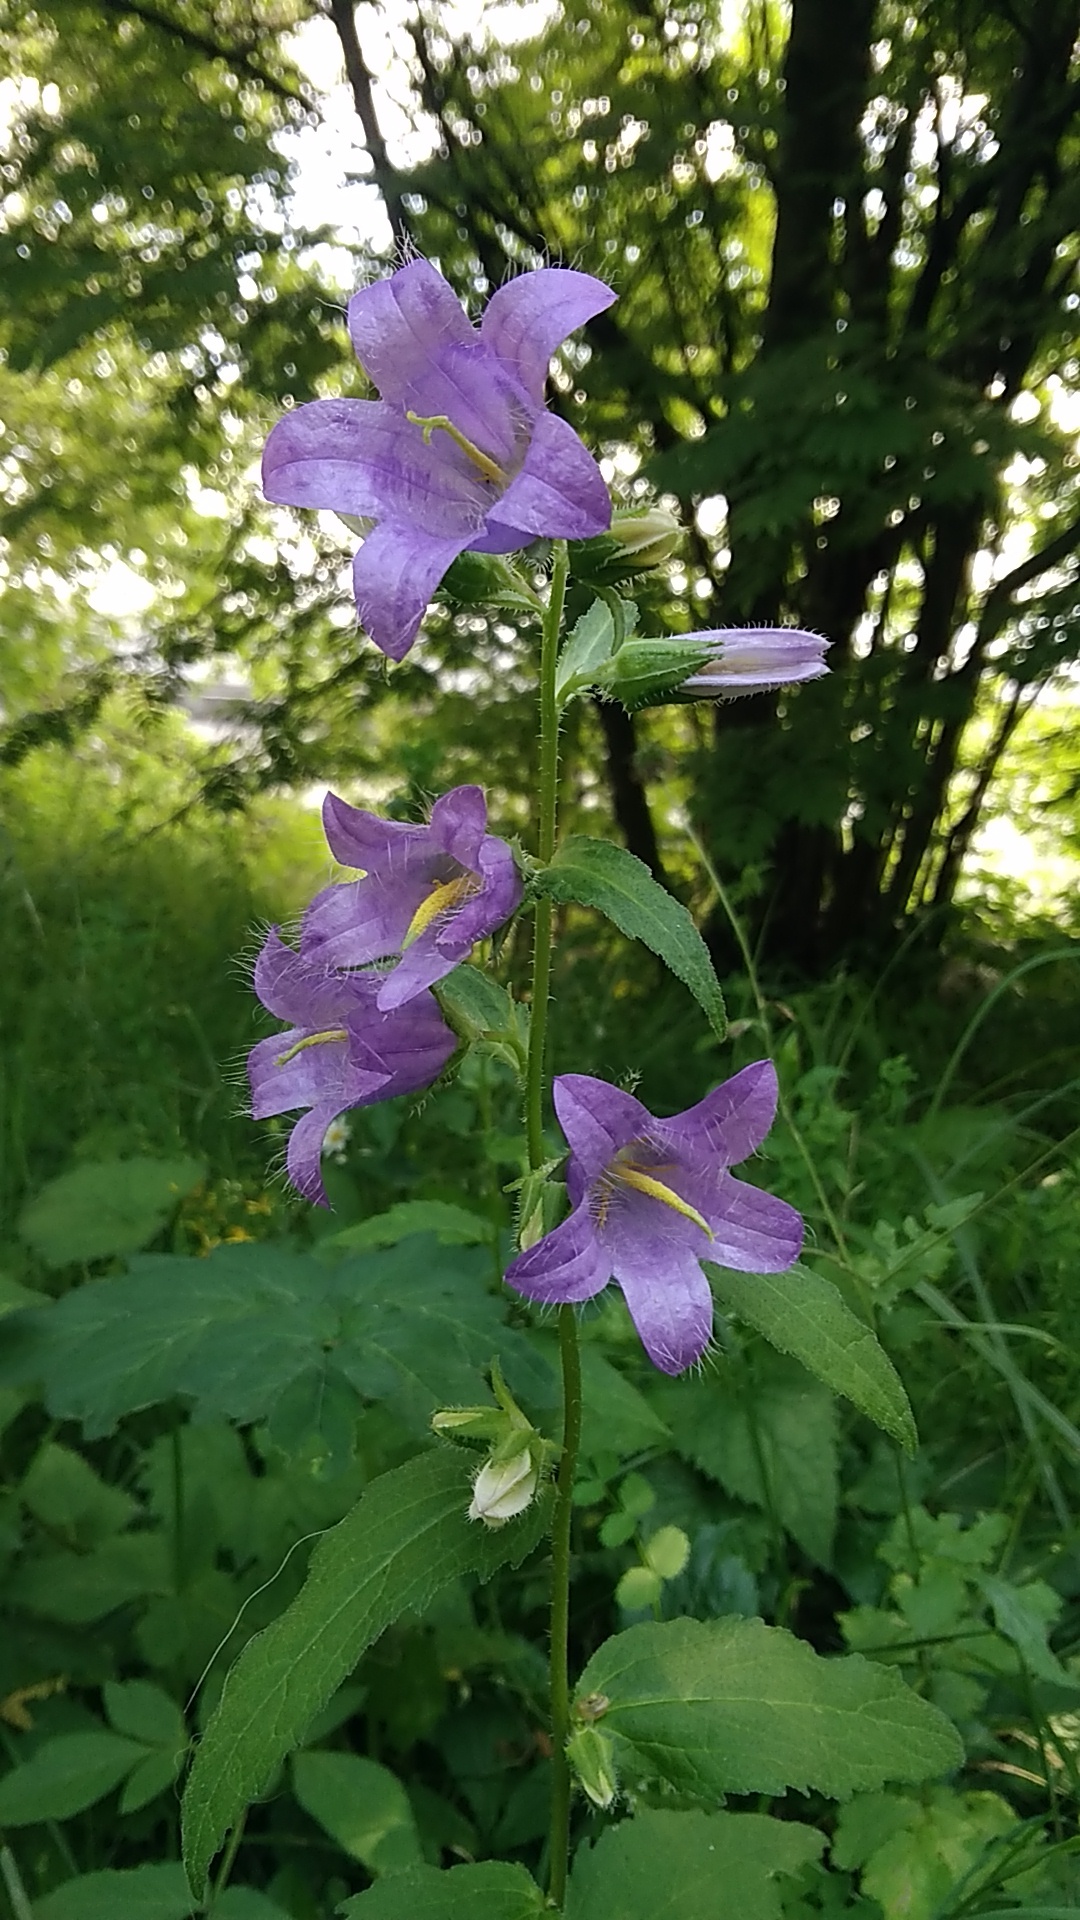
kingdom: Plantae
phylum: Tracheophyta
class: Magnoliopsida
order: Asterales
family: Campanulaceae
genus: Campanula
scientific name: Campanula trachelium
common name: Nettle-leaved bellflower
